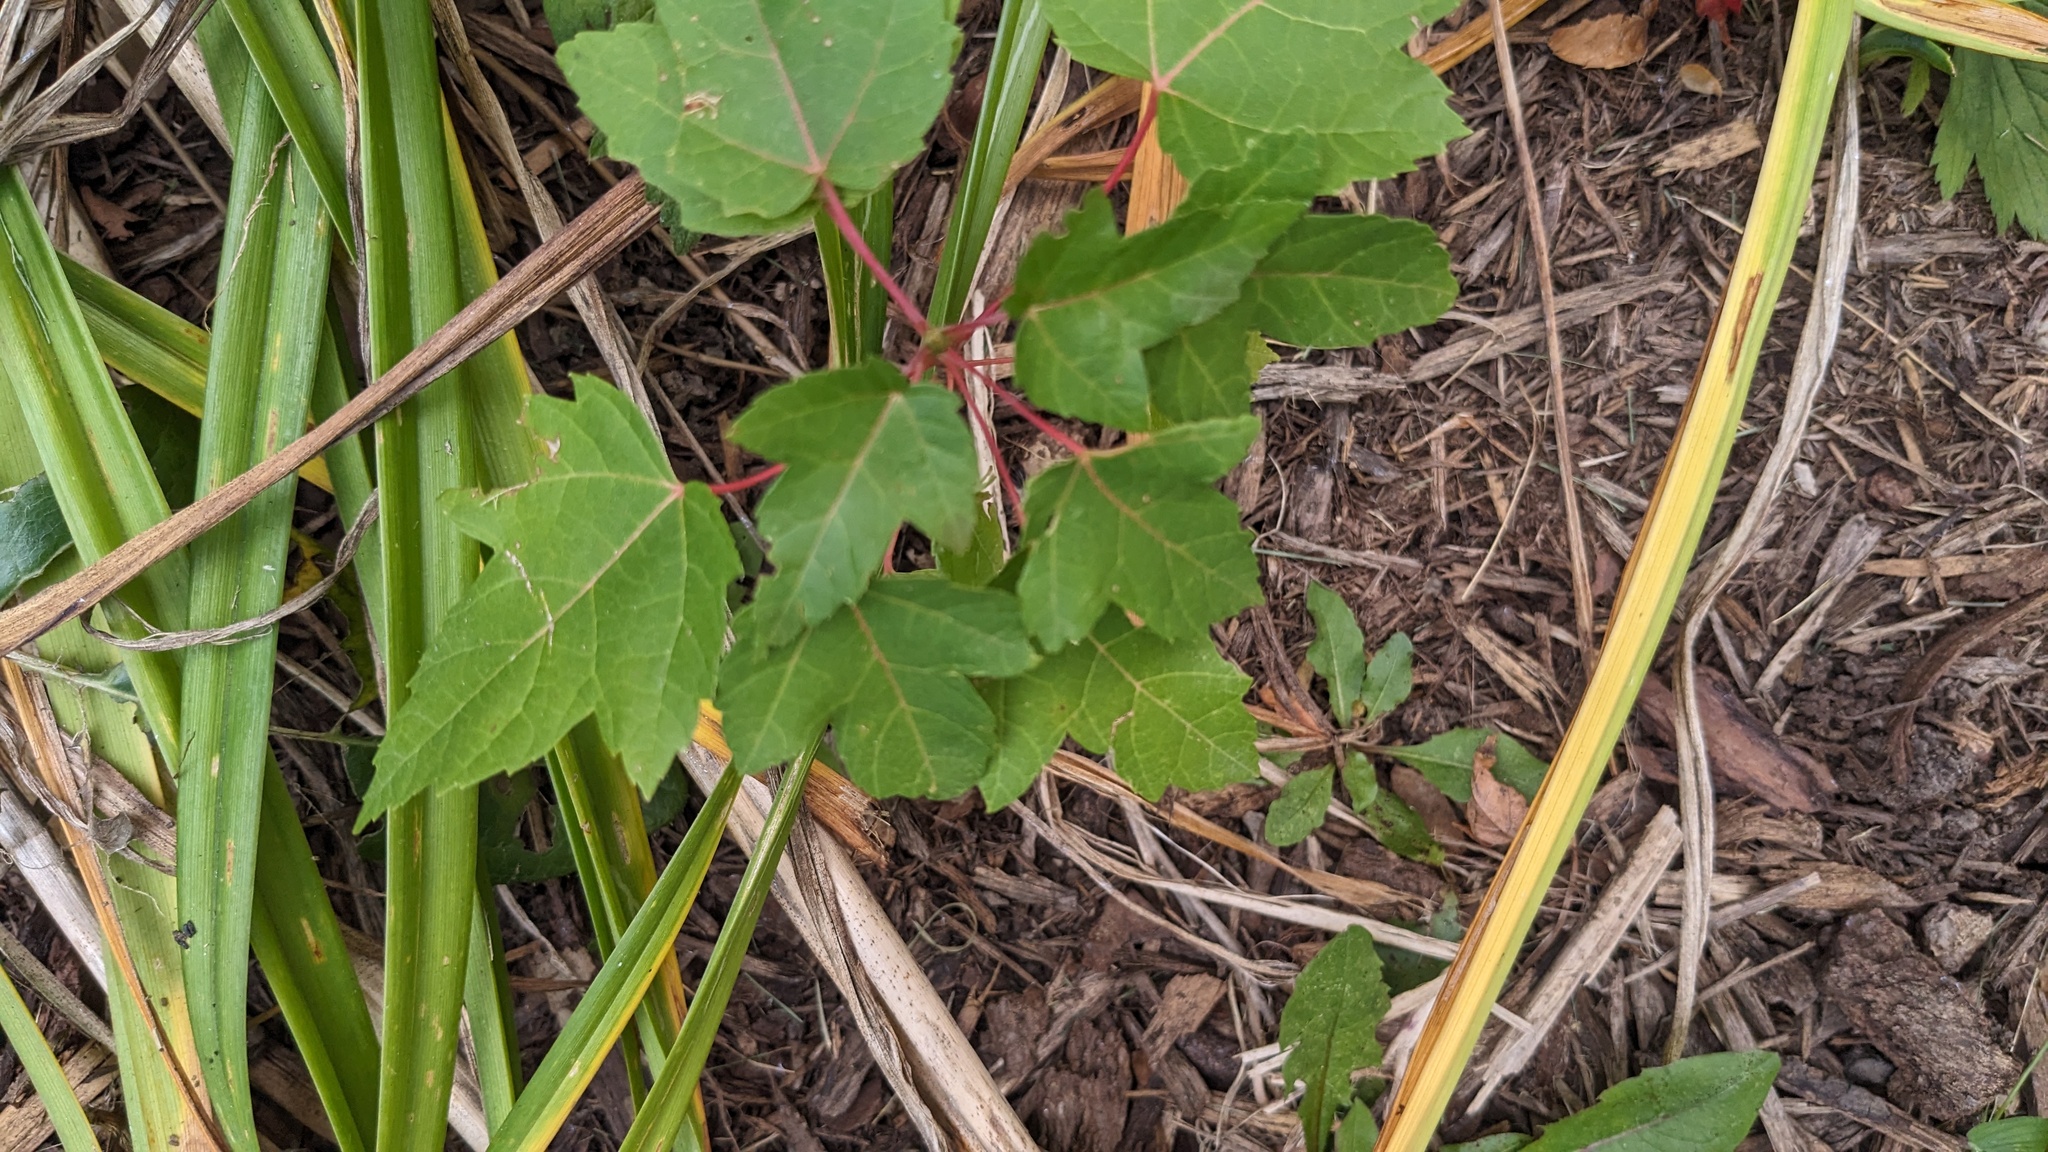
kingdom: Plantae
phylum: Tracheophyta
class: Magnoliopsida
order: Sapindales
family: Sapindaceae
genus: Acer
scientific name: Acer tataricum
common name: Tartar maple
